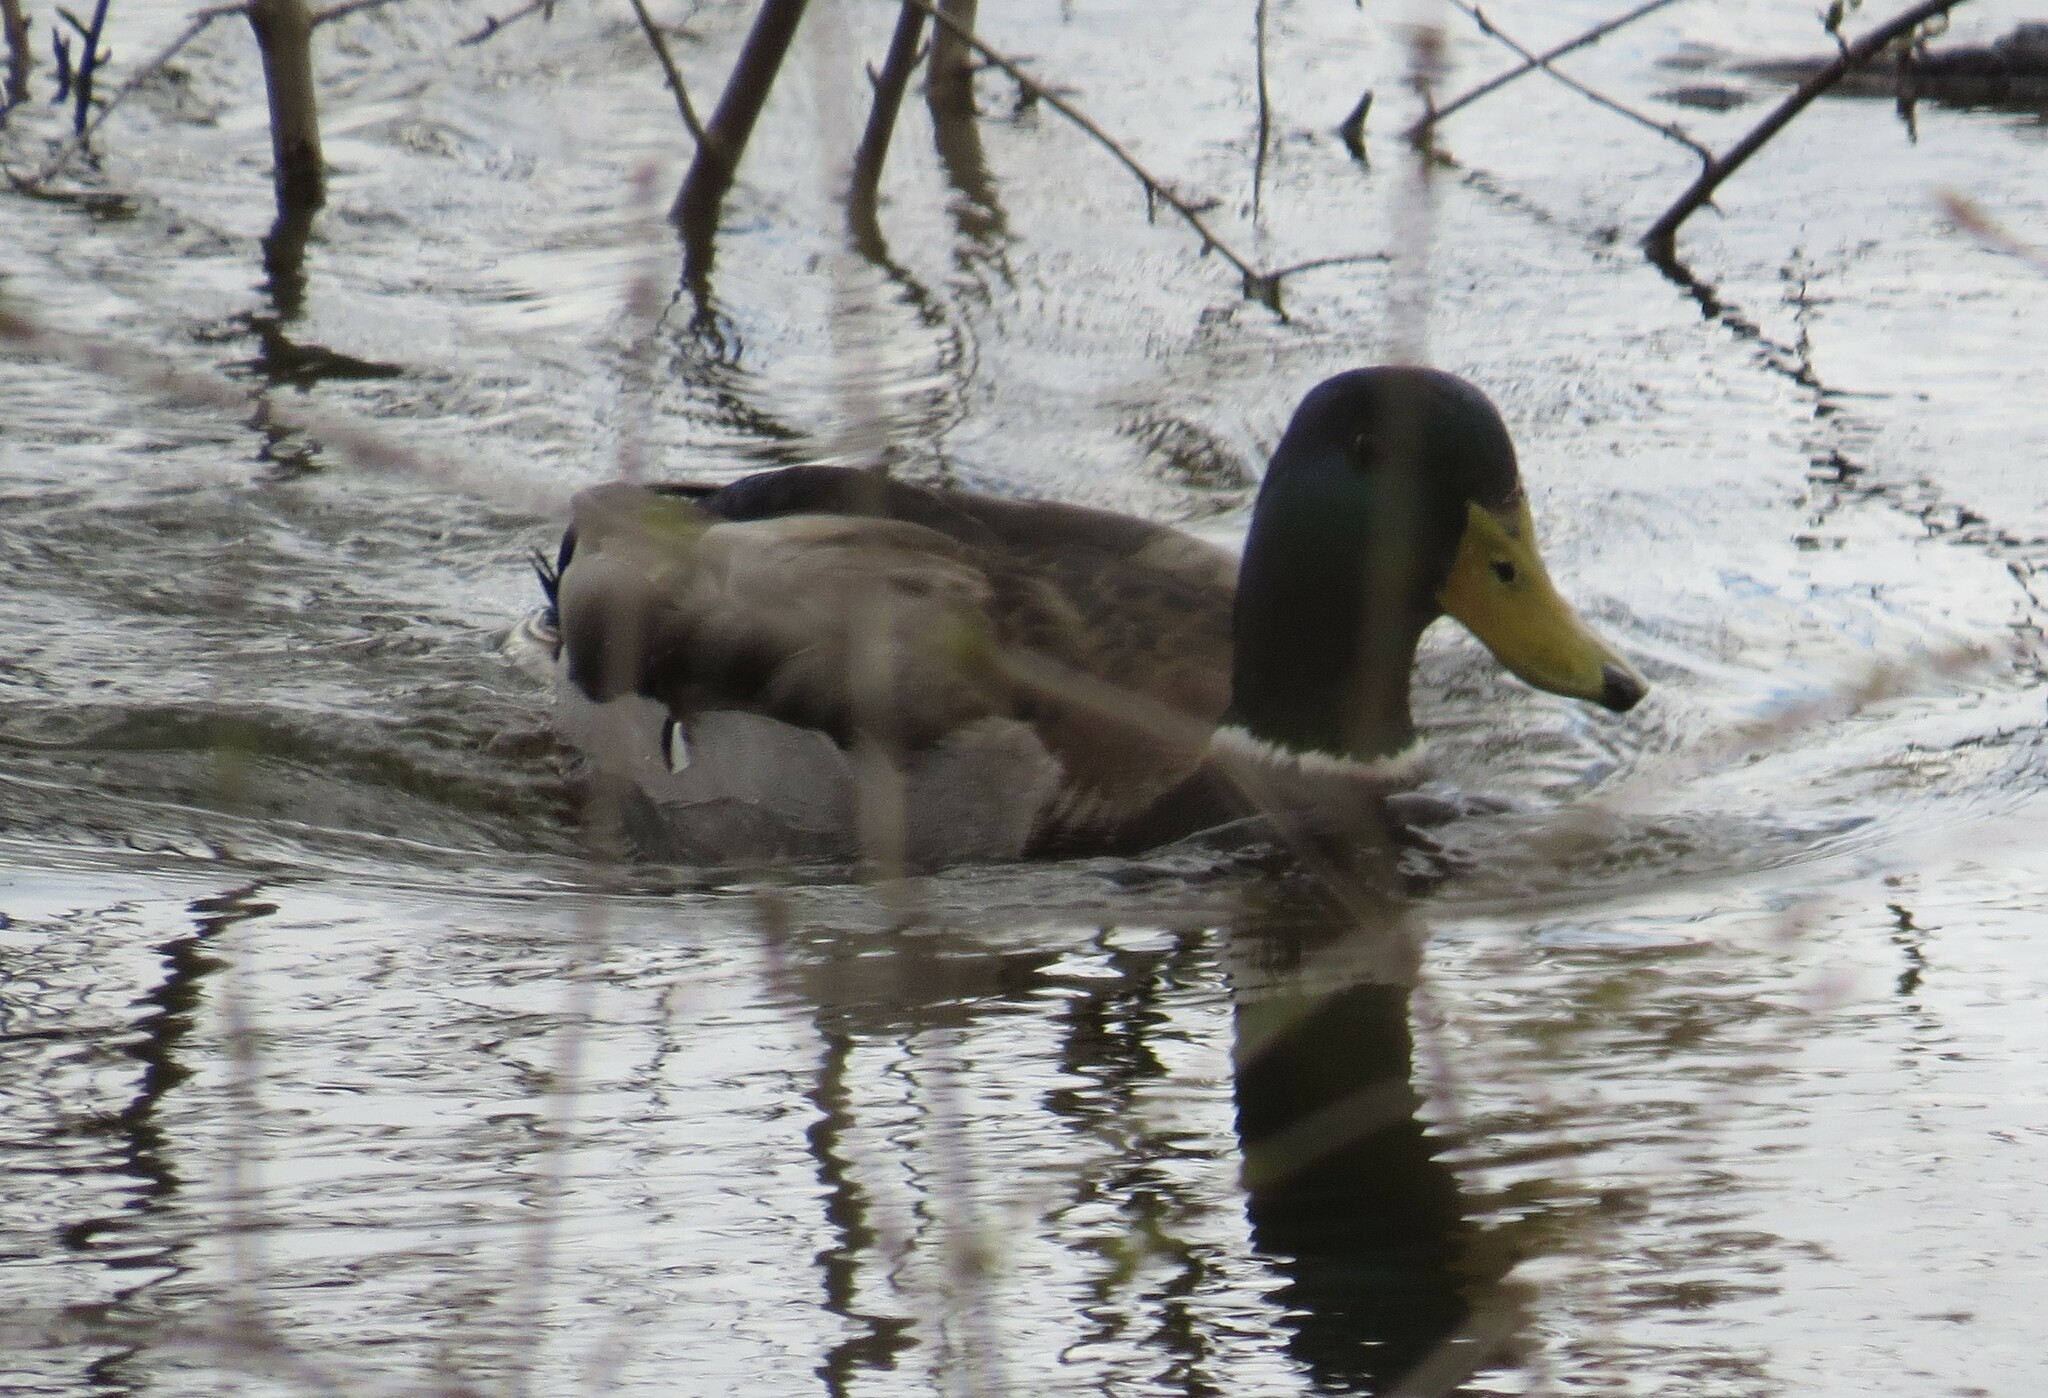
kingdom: Animalia
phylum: Chordata
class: Aves
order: Anseriformes
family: Anatidae
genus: Anas
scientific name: Anas platyrhynchos
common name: Mallard
